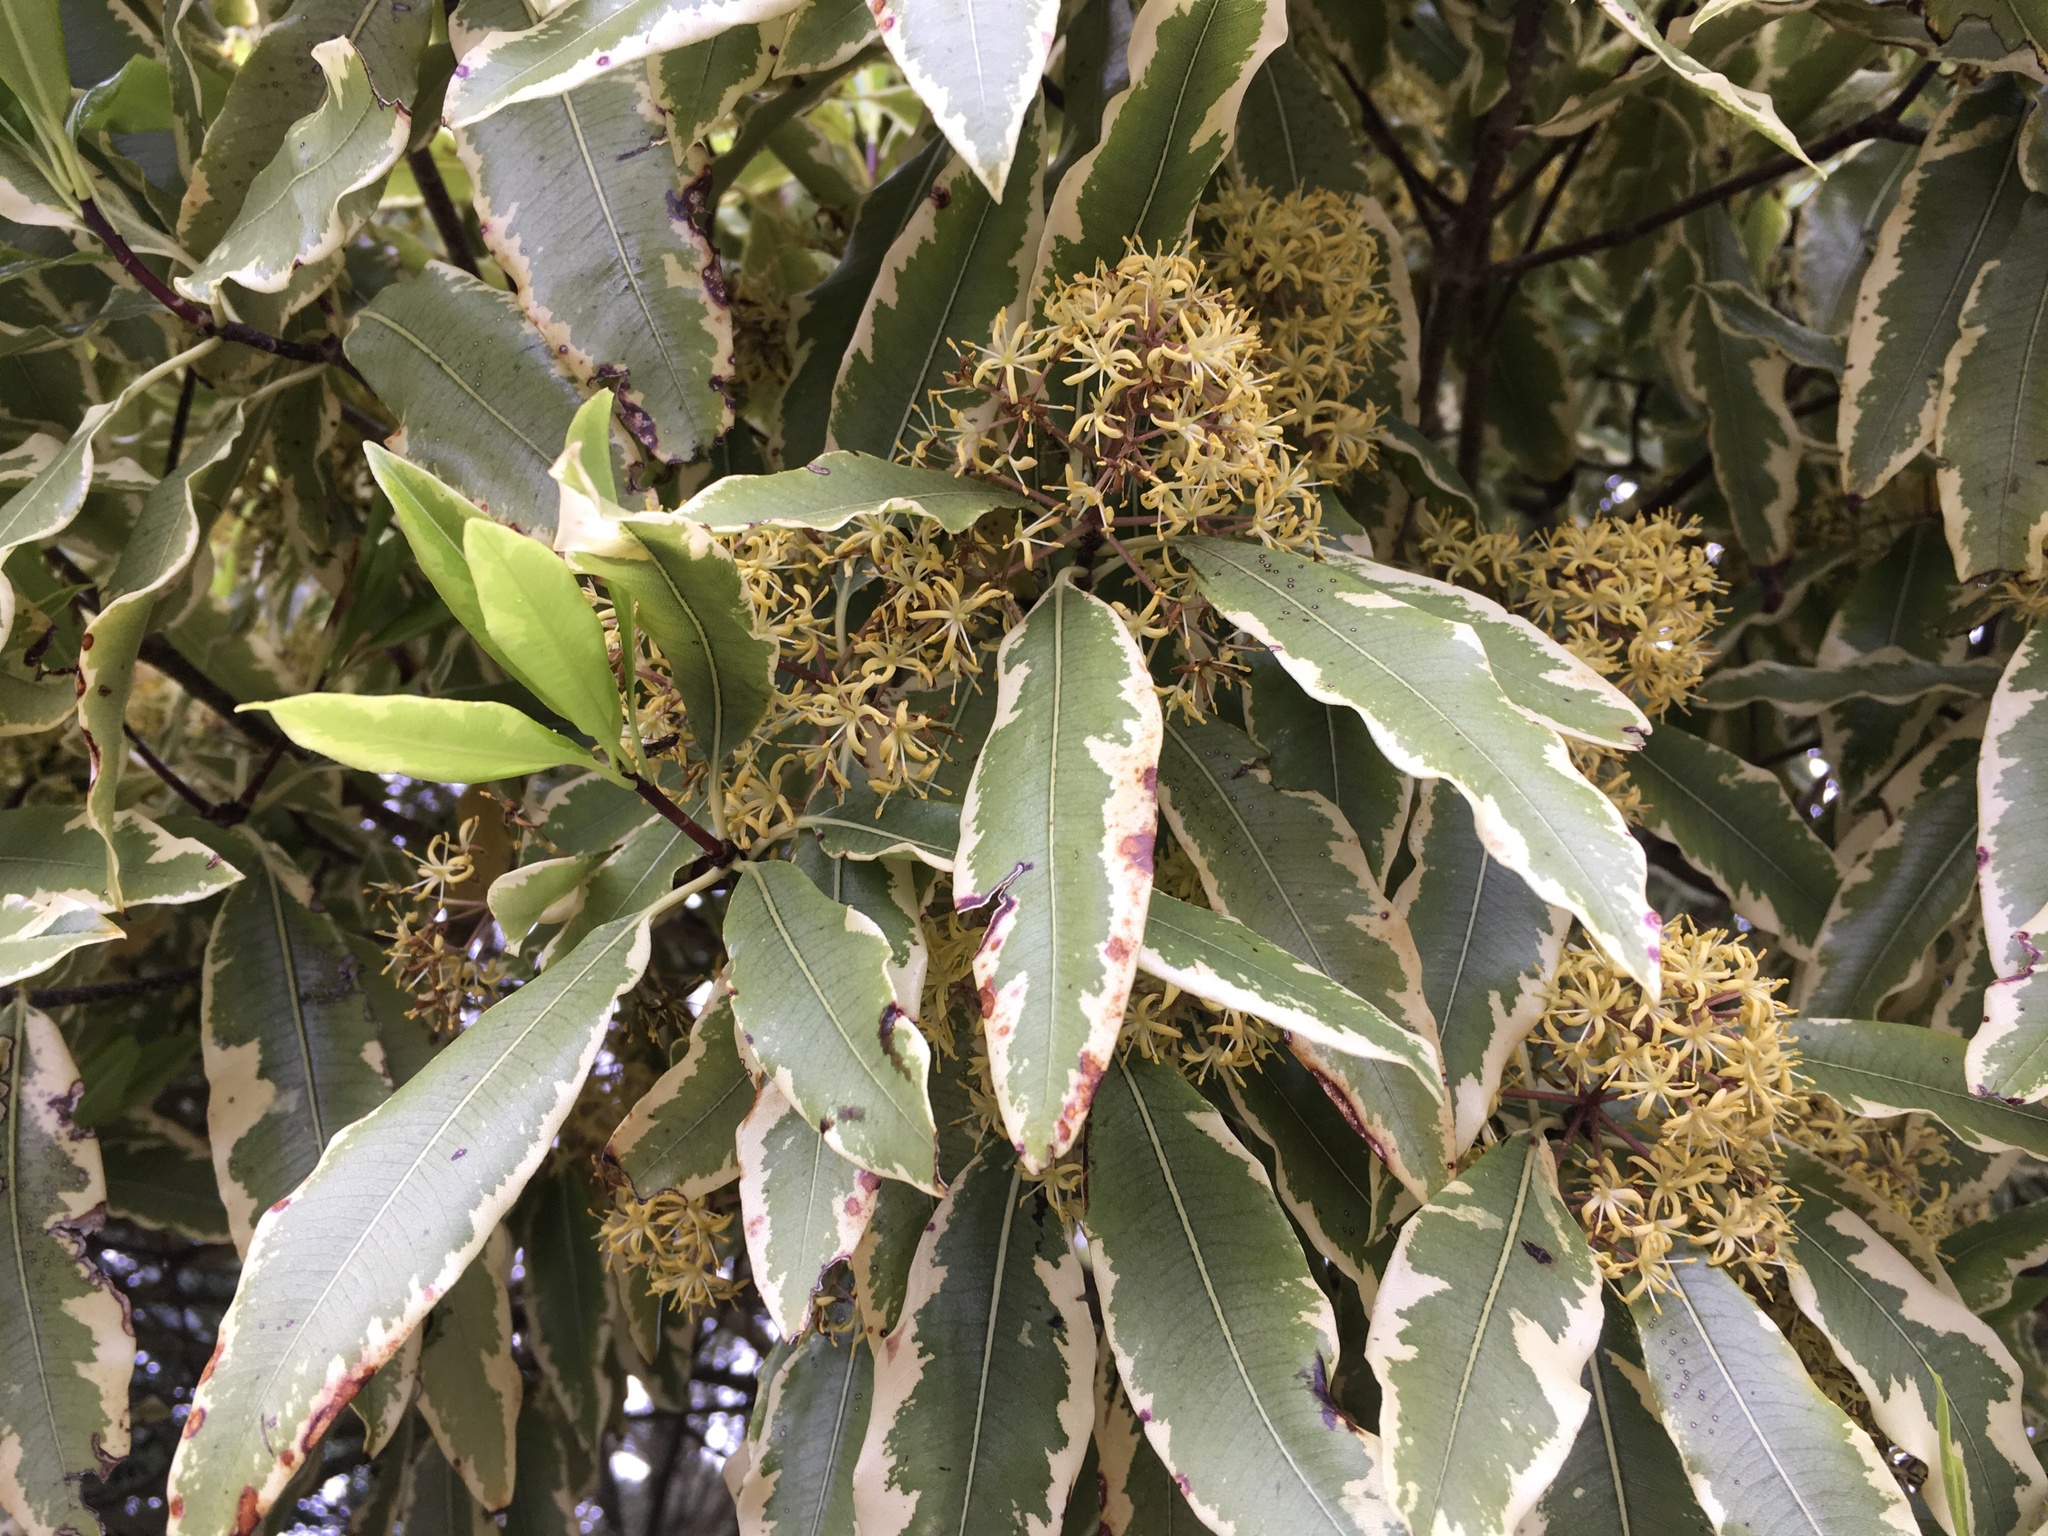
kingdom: Plantae
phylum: Tracheophyta
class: Magnoliopsida
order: Apiales
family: Pittosporaceae
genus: Pittosporum
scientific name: Pittosporum eugenioides
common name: Lemonwood
